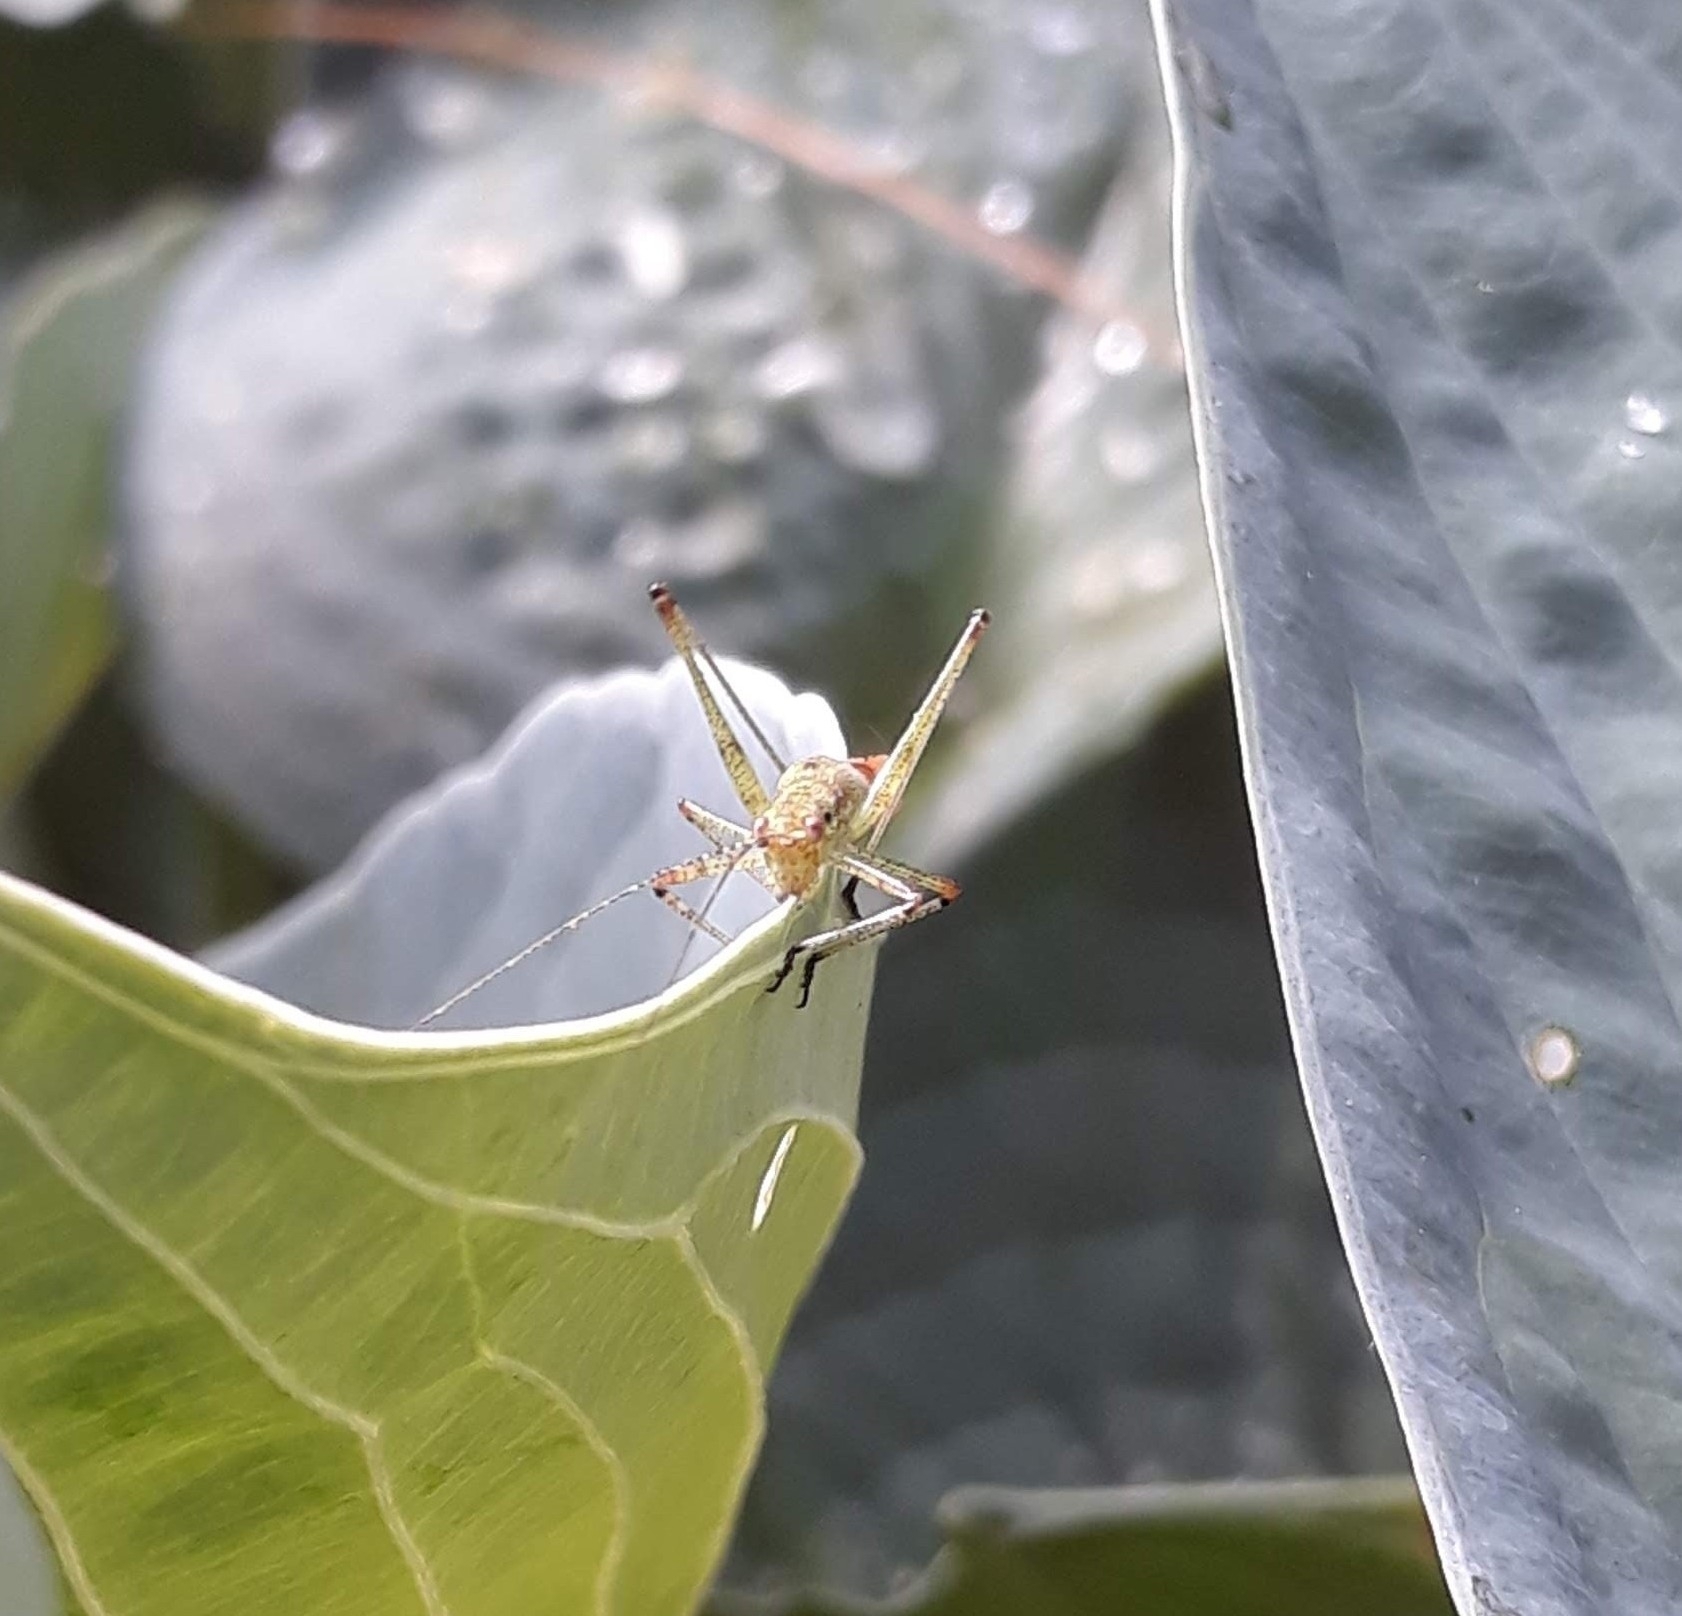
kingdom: Animalia
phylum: Arthropoda
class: Insecta
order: Orthoptera
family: Tettigoniidae
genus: Phaneroptera
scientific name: Phaneroptera nana
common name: Southern sickle bush-cricket
